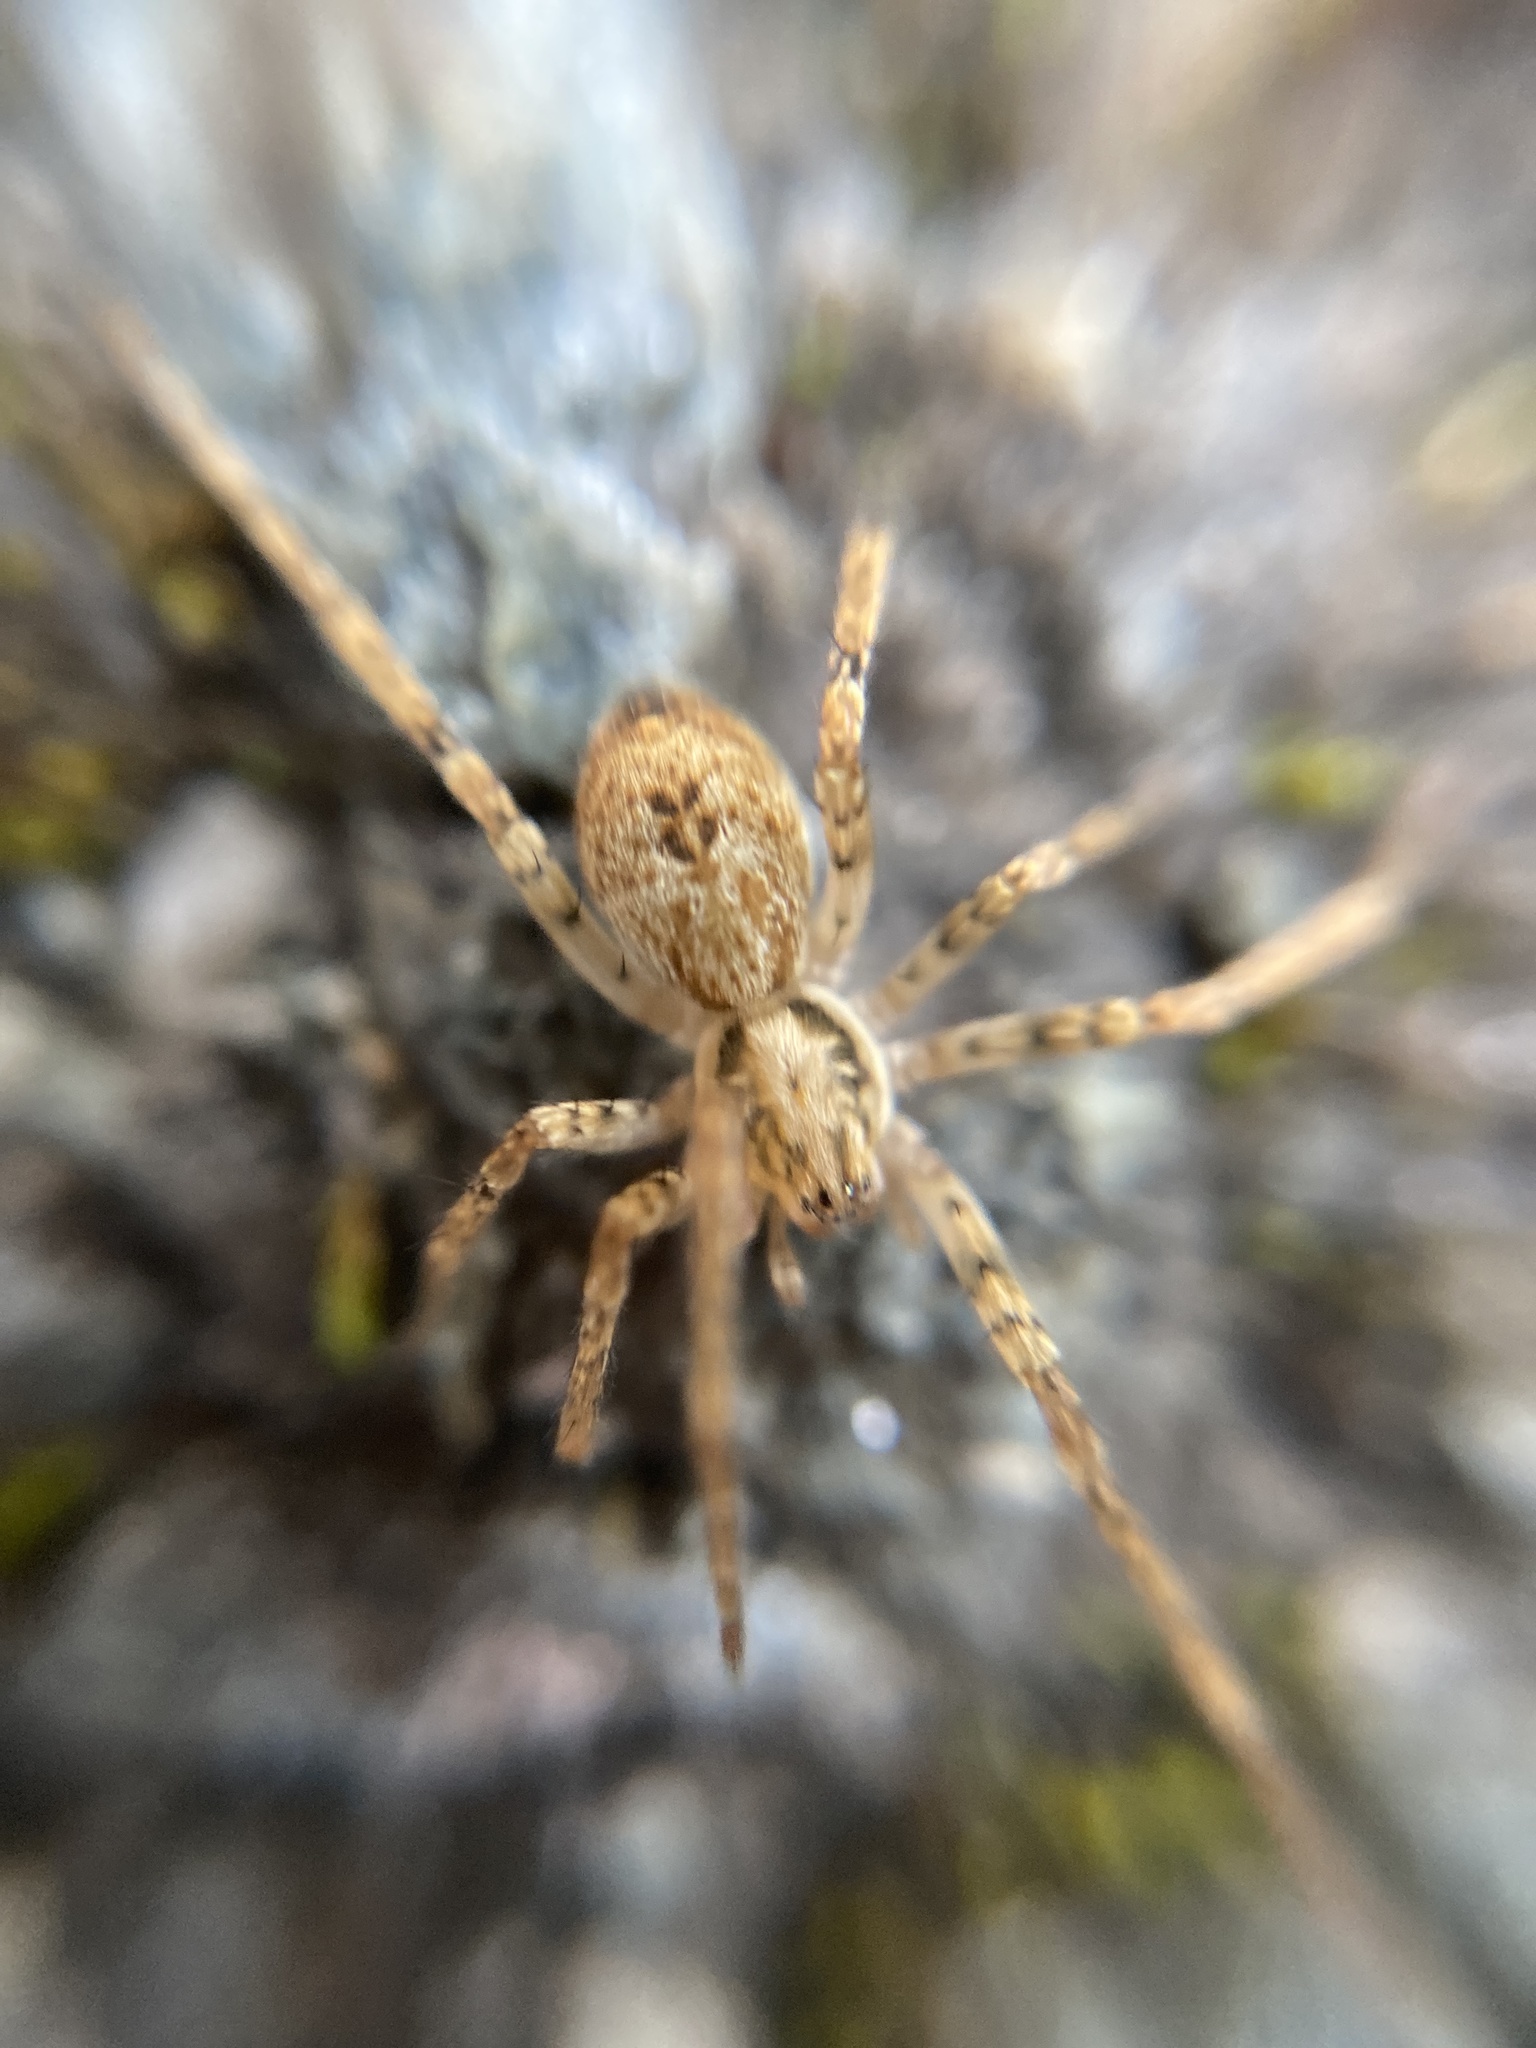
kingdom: Animalia
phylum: Arthropoda
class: Arachnida
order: Araneae
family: Anyphaenidae
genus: Anyphaena
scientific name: Anyphaena accentuata
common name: Buzzing spider
